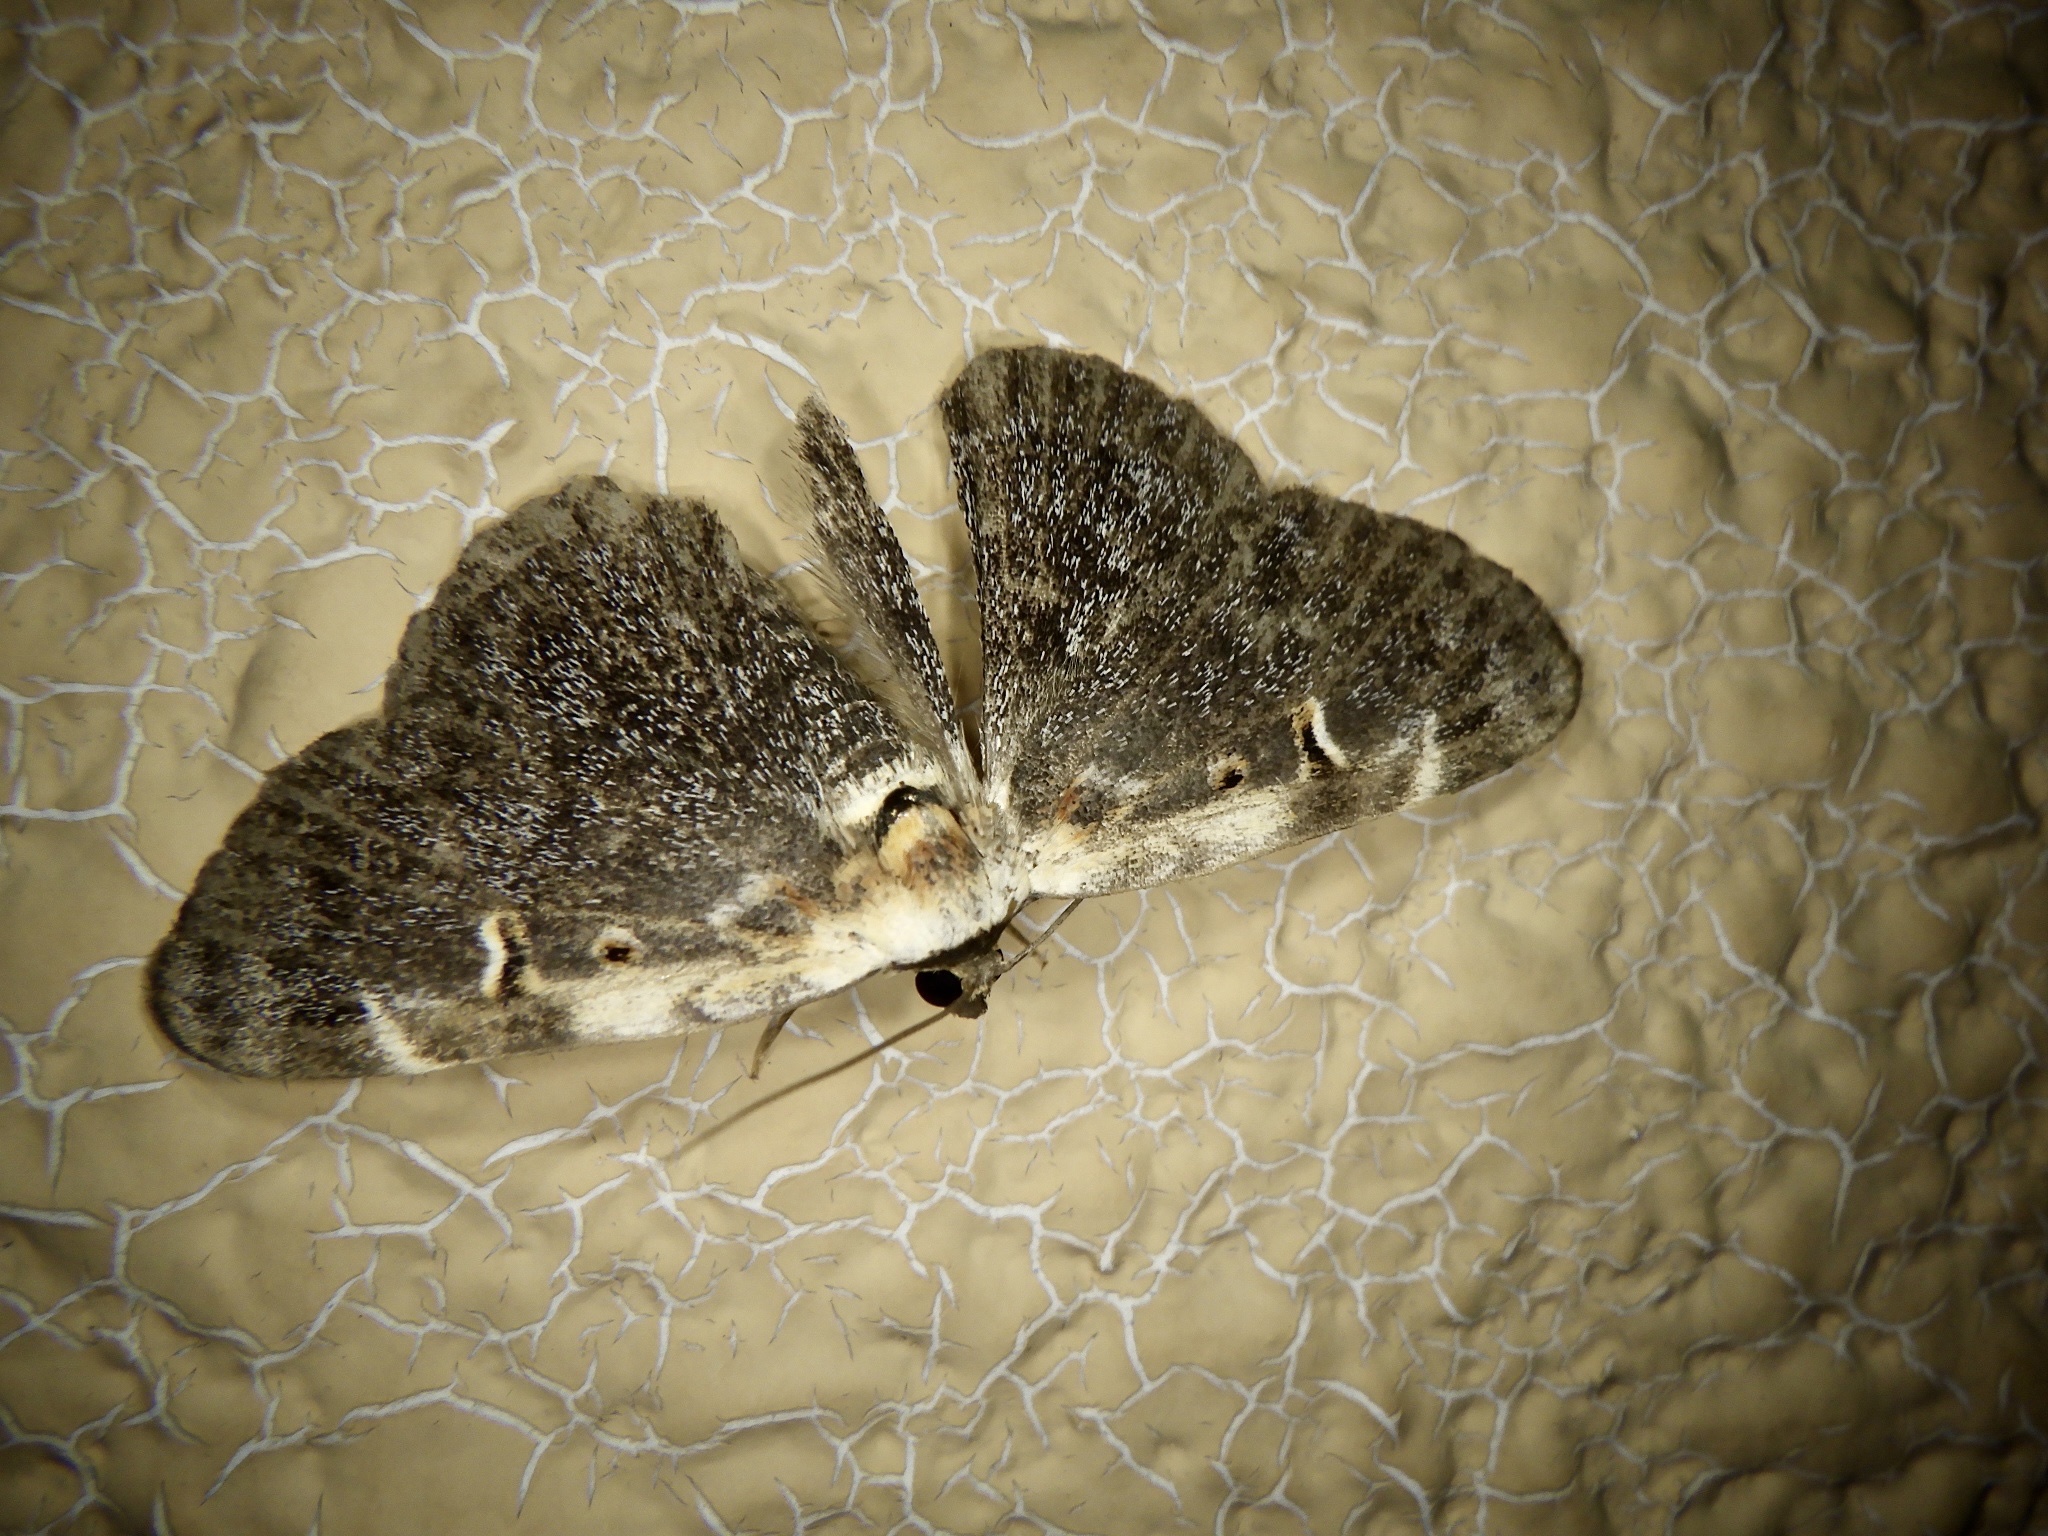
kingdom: Animalia
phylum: Arthropoda
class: Insecta
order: Lepidoptera
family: Erebidae
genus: Hypostrotia
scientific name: Hypostrotia cinerea
